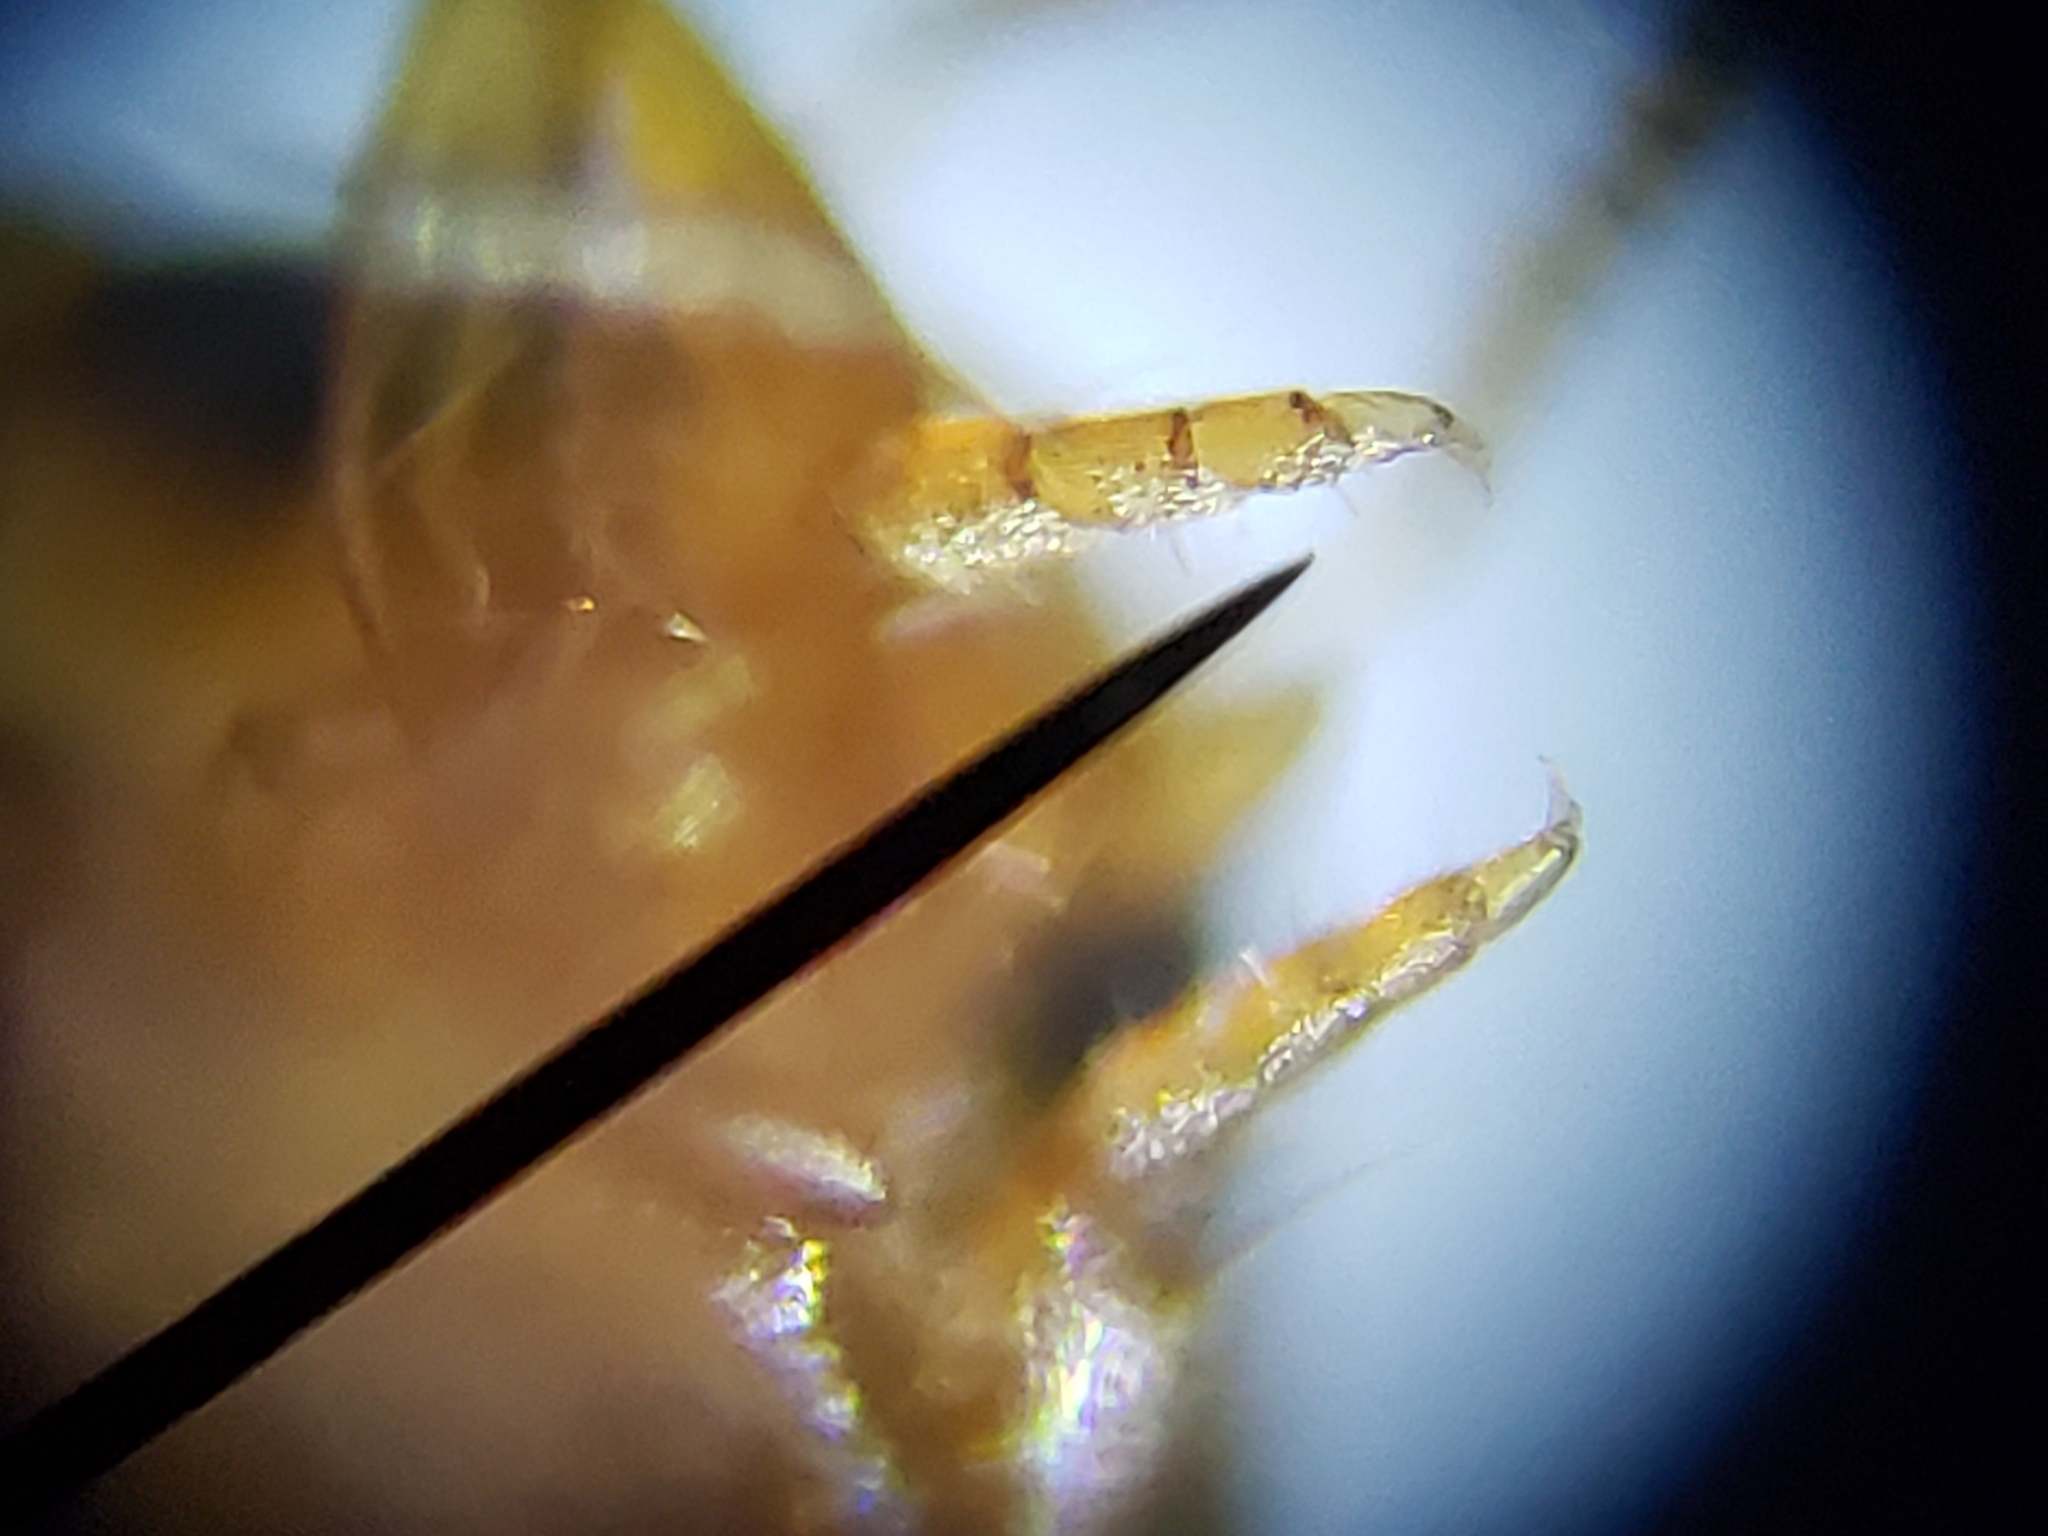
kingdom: Animalia
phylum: Arthropoda
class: Insecta
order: Coleoptera
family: Dytiscidae
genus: Desmopachria
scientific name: Desmopachria
